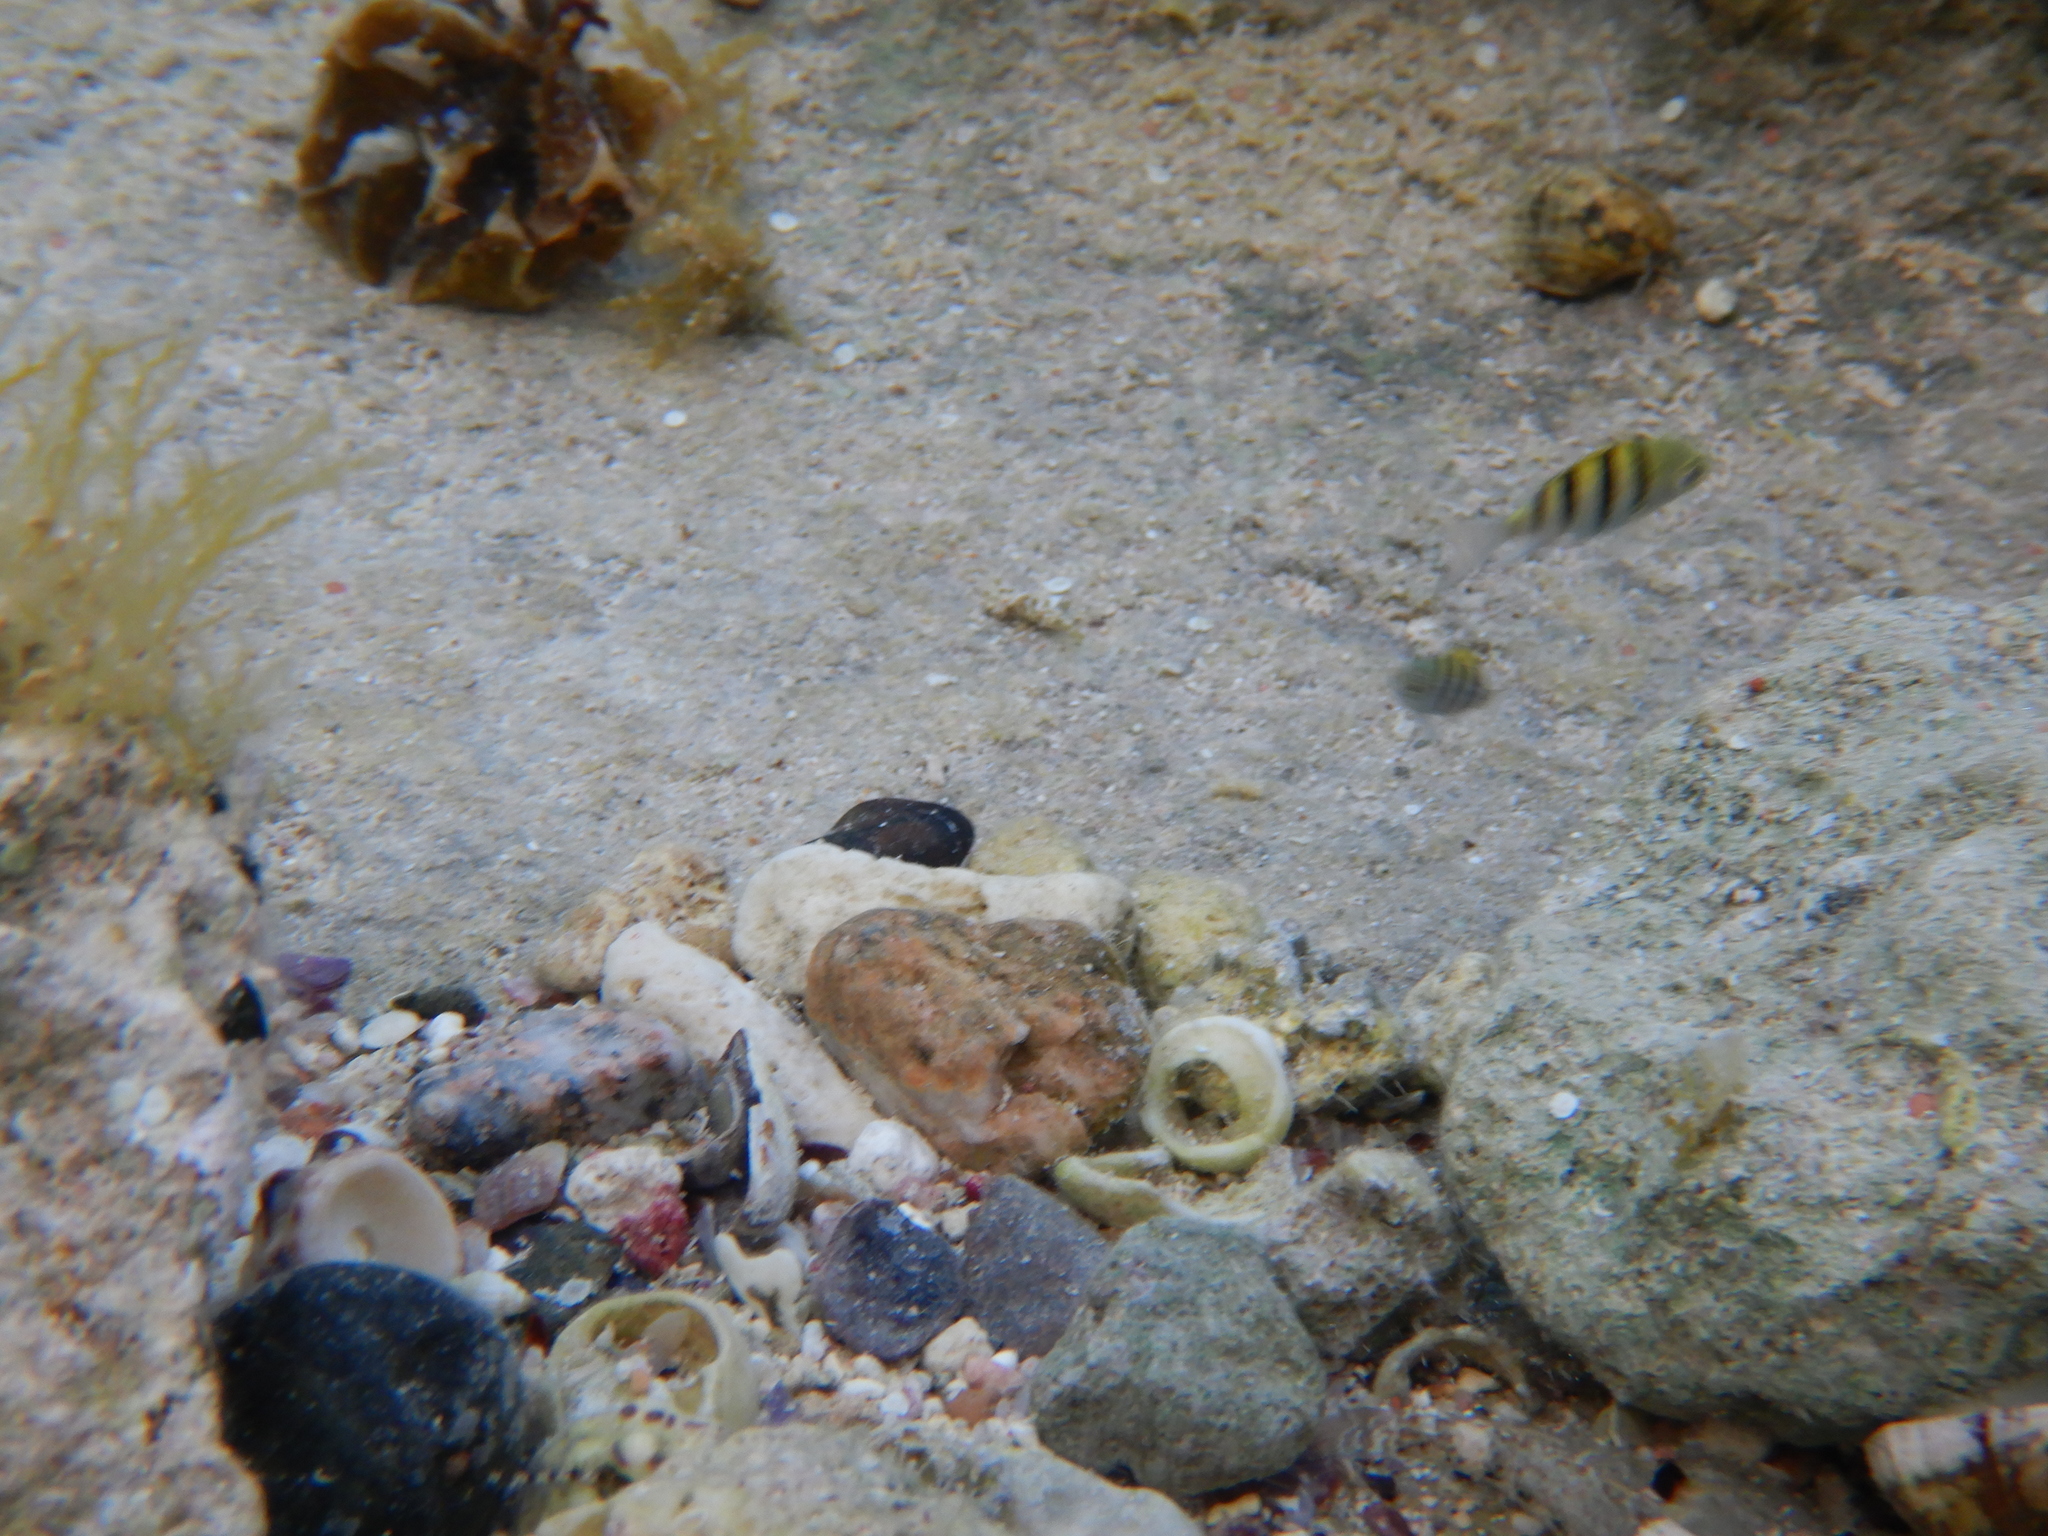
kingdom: Animalia
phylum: Chordata
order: Perciformes
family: Pomacentridae
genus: Abudefduf
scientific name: Abudefduf vaigiensis
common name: Indo-pacific sergeant
